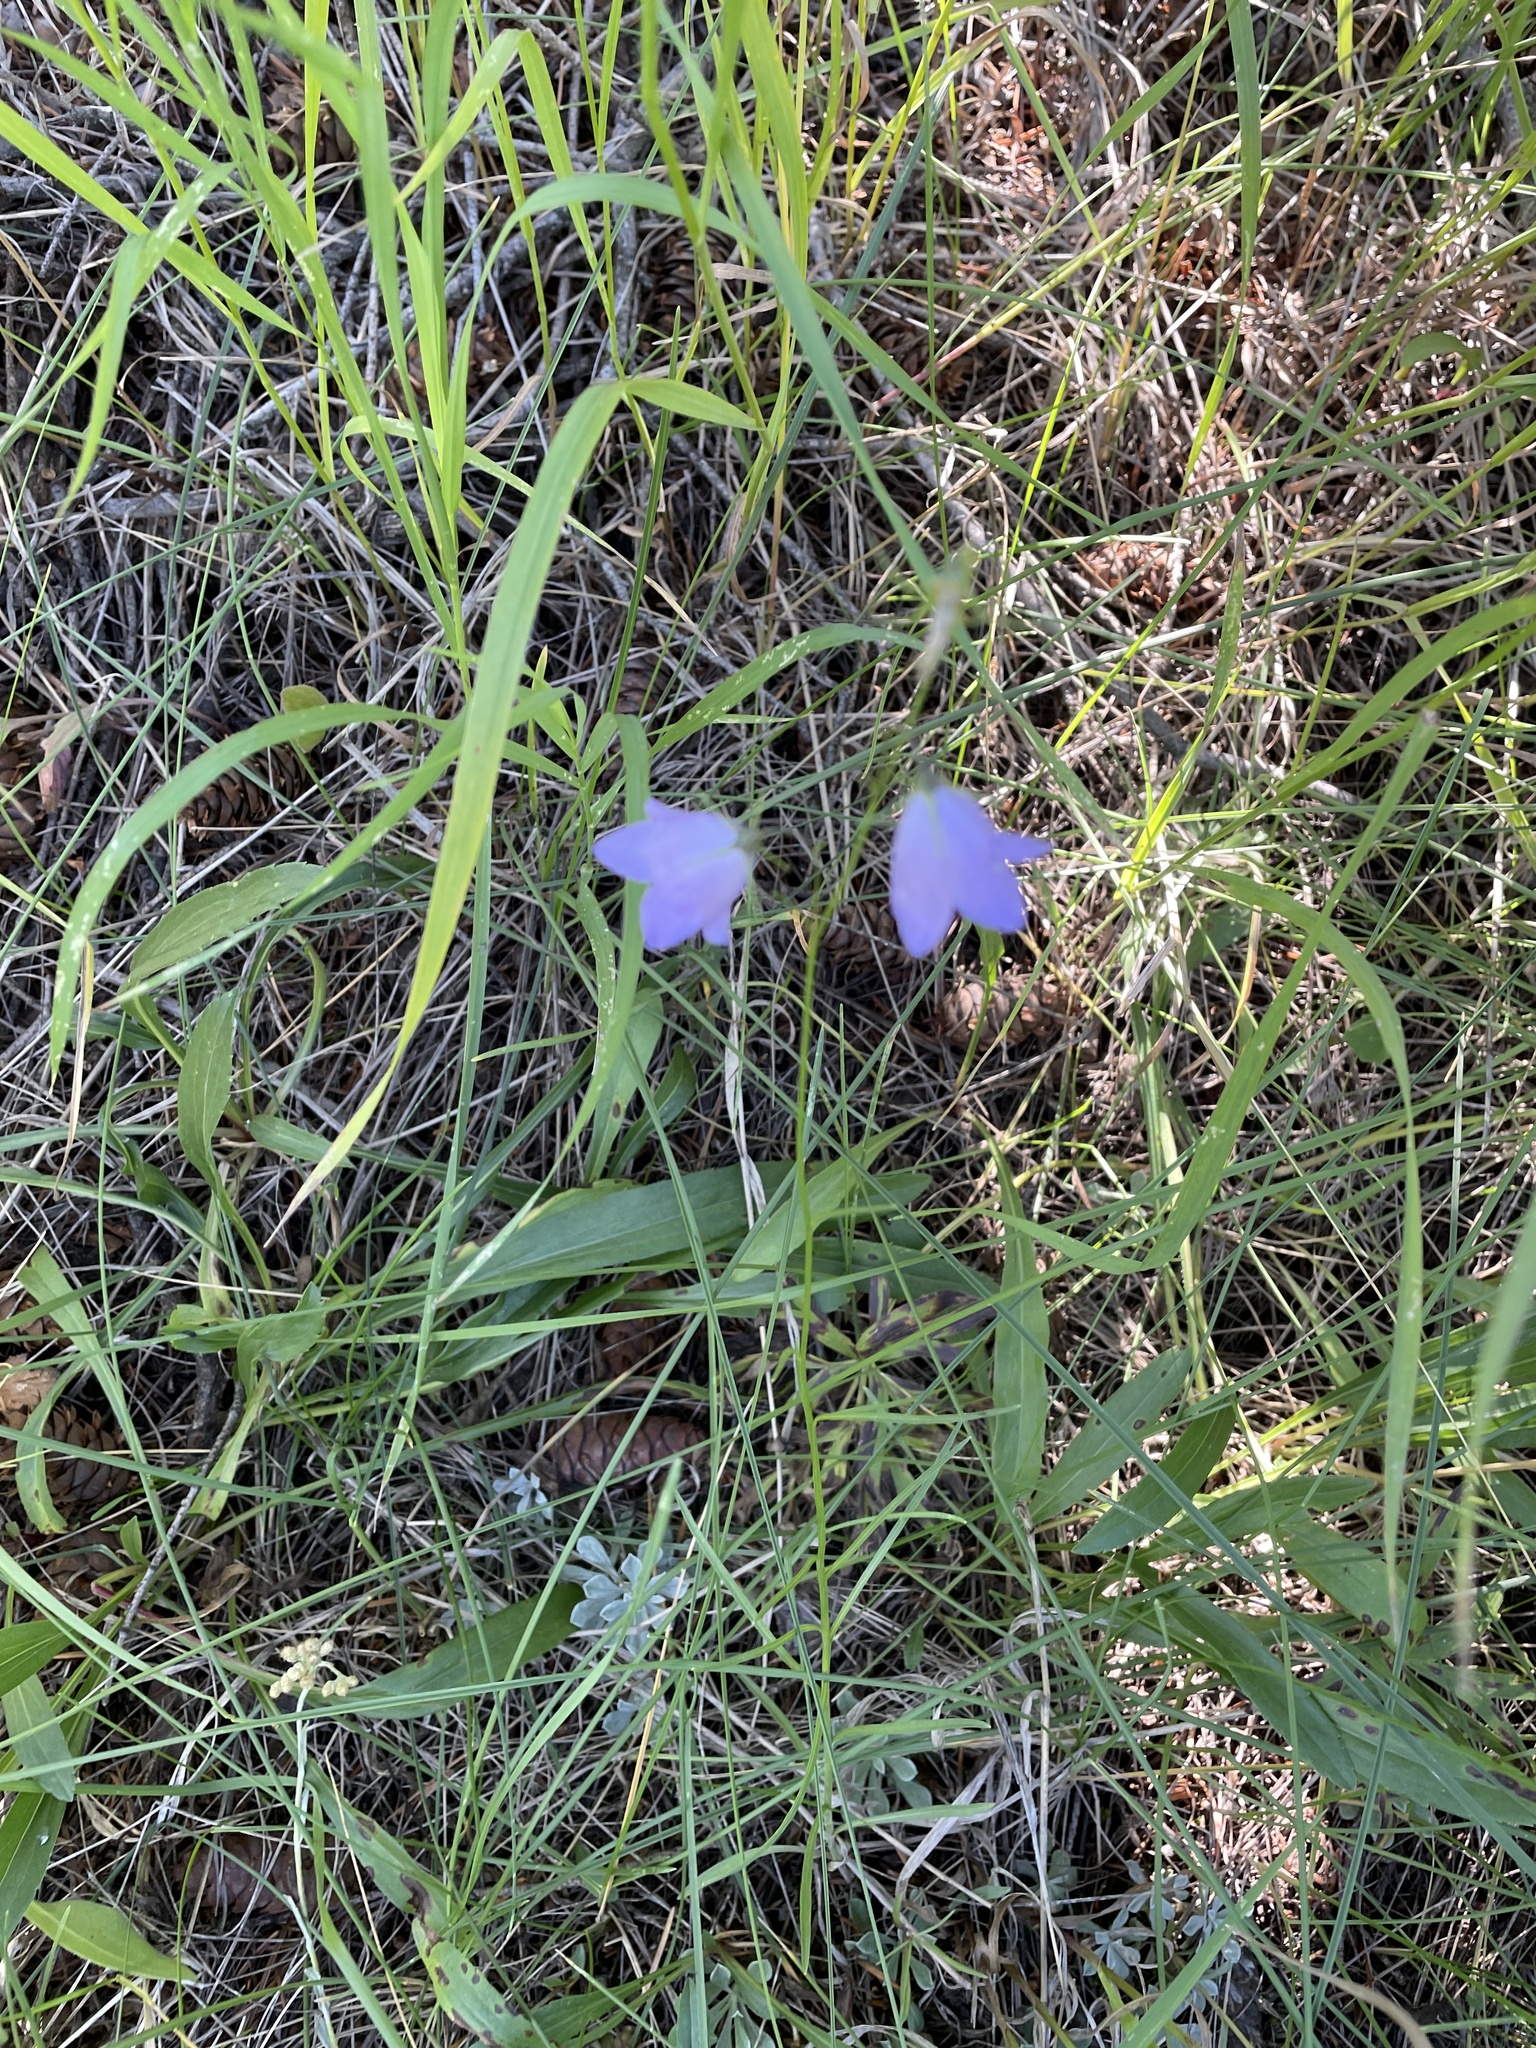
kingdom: Plantae
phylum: Tracheophyta
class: Magnoliopsida
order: Asterales
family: Campanulaceae
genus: Campanula
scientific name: Campanula
